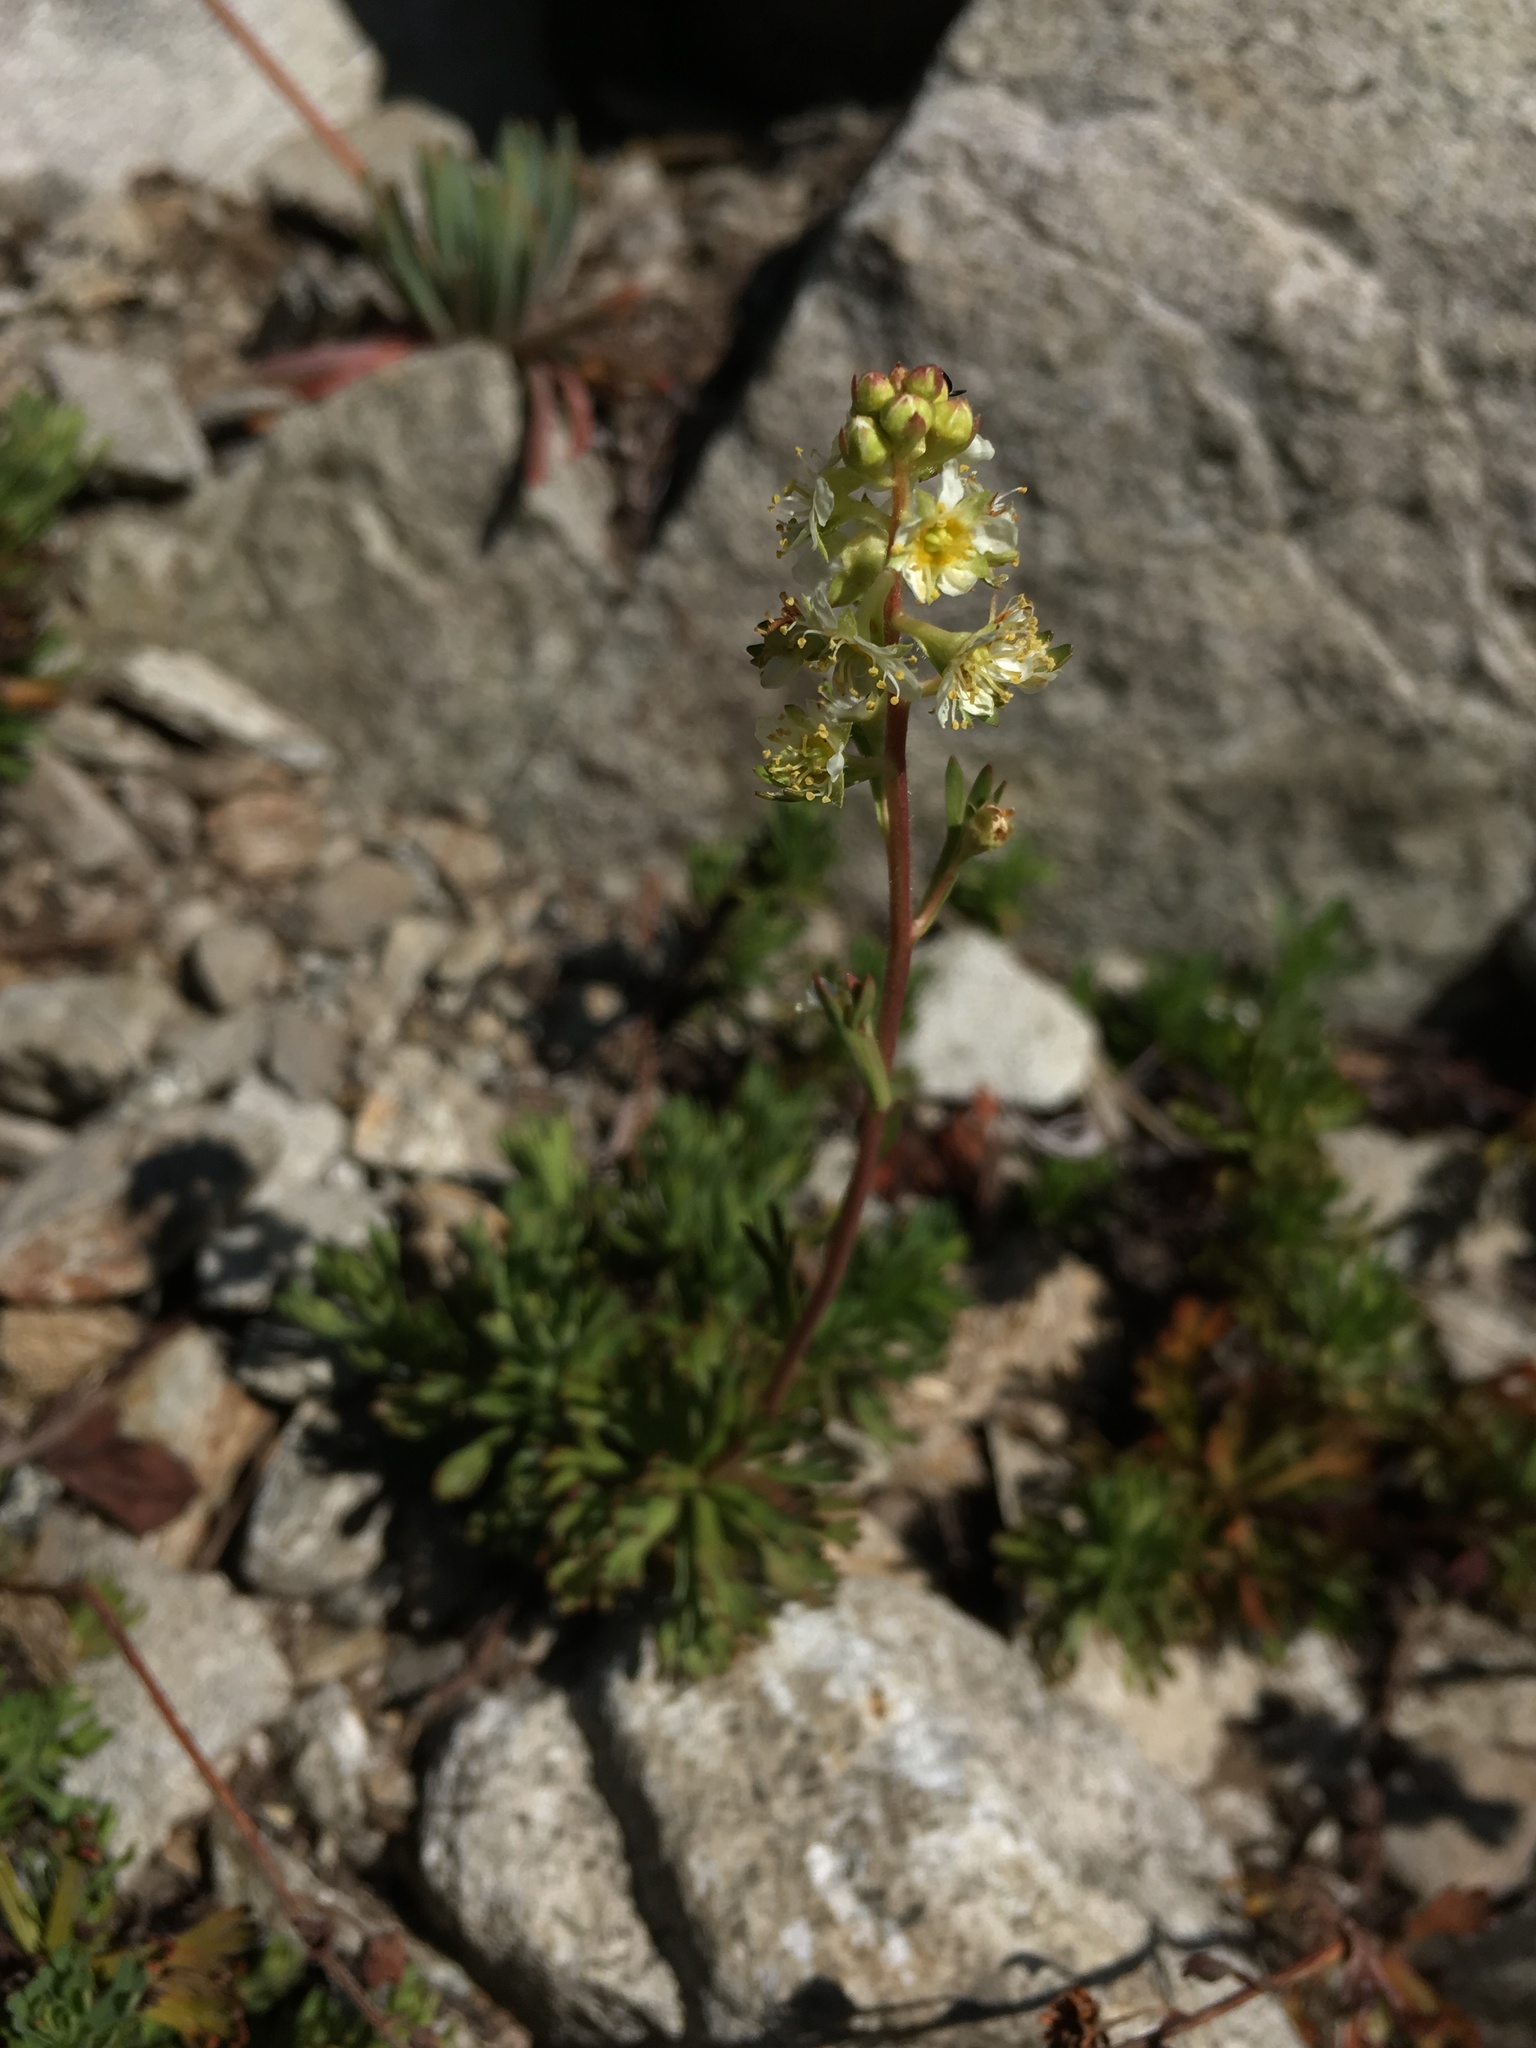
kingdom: Plantae
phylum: Tracheophyta
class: Magnoliopsida
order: Rosales
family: Rosaceae
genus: Luetkea
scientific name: Luetkea pectinata
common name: Partridgefoot
